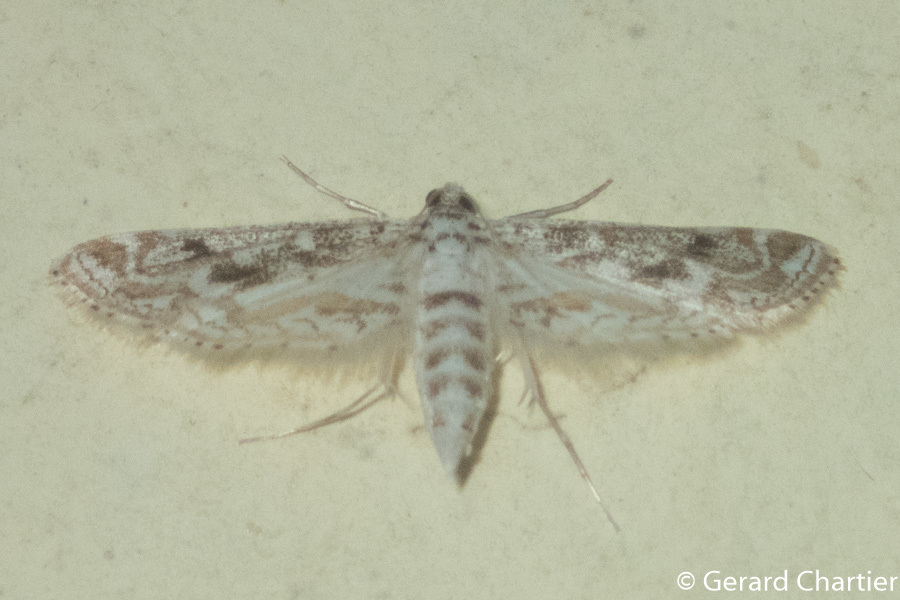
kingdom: Animalia
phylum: Arthropoda
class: Insecta
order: Lepidoptera
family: Crambidae
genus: Parapoynx
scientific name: Parapoynx diminutalis
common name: Hydrilla leafcutter
